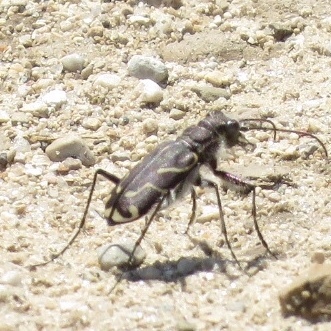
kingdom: Animalia
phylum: Arthropoda
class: Insecta
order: Coleoptera
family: Carabidae
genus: Cicindela
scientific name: Cicindela tranquebarica
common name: Oblique-lined tiger beetle
